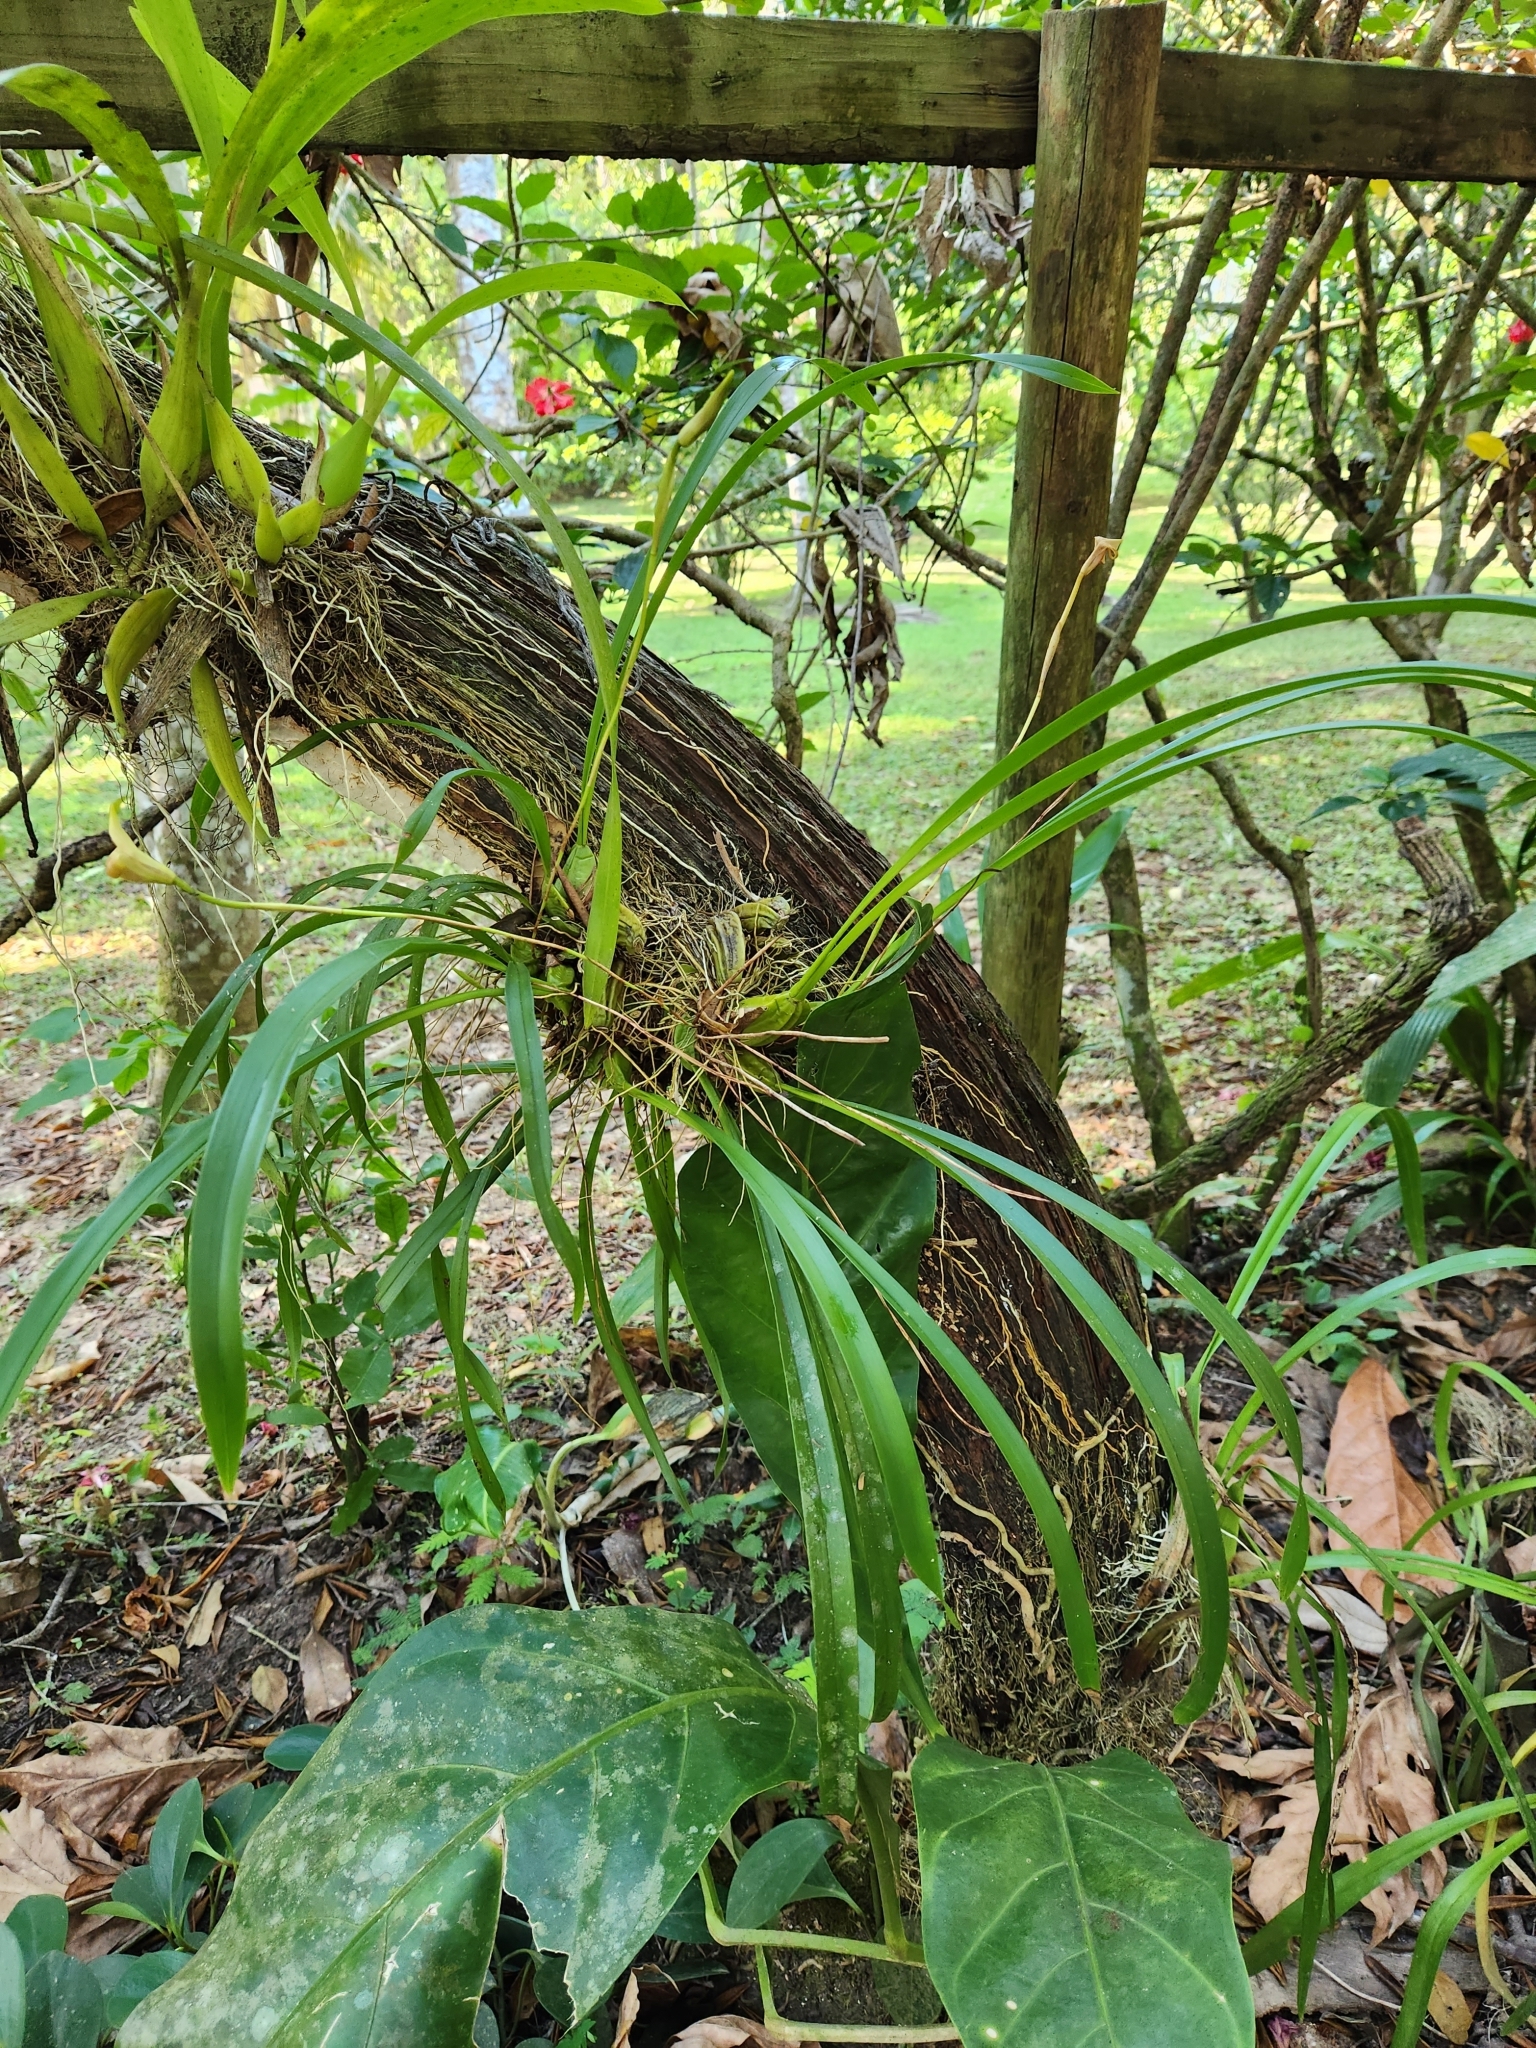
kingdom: Plantae
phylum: Tracheophyta
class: Liliopsida
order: Asparagales
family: Orchidaceae
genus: Maxillaria
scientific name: Maxillaria egertoniana
